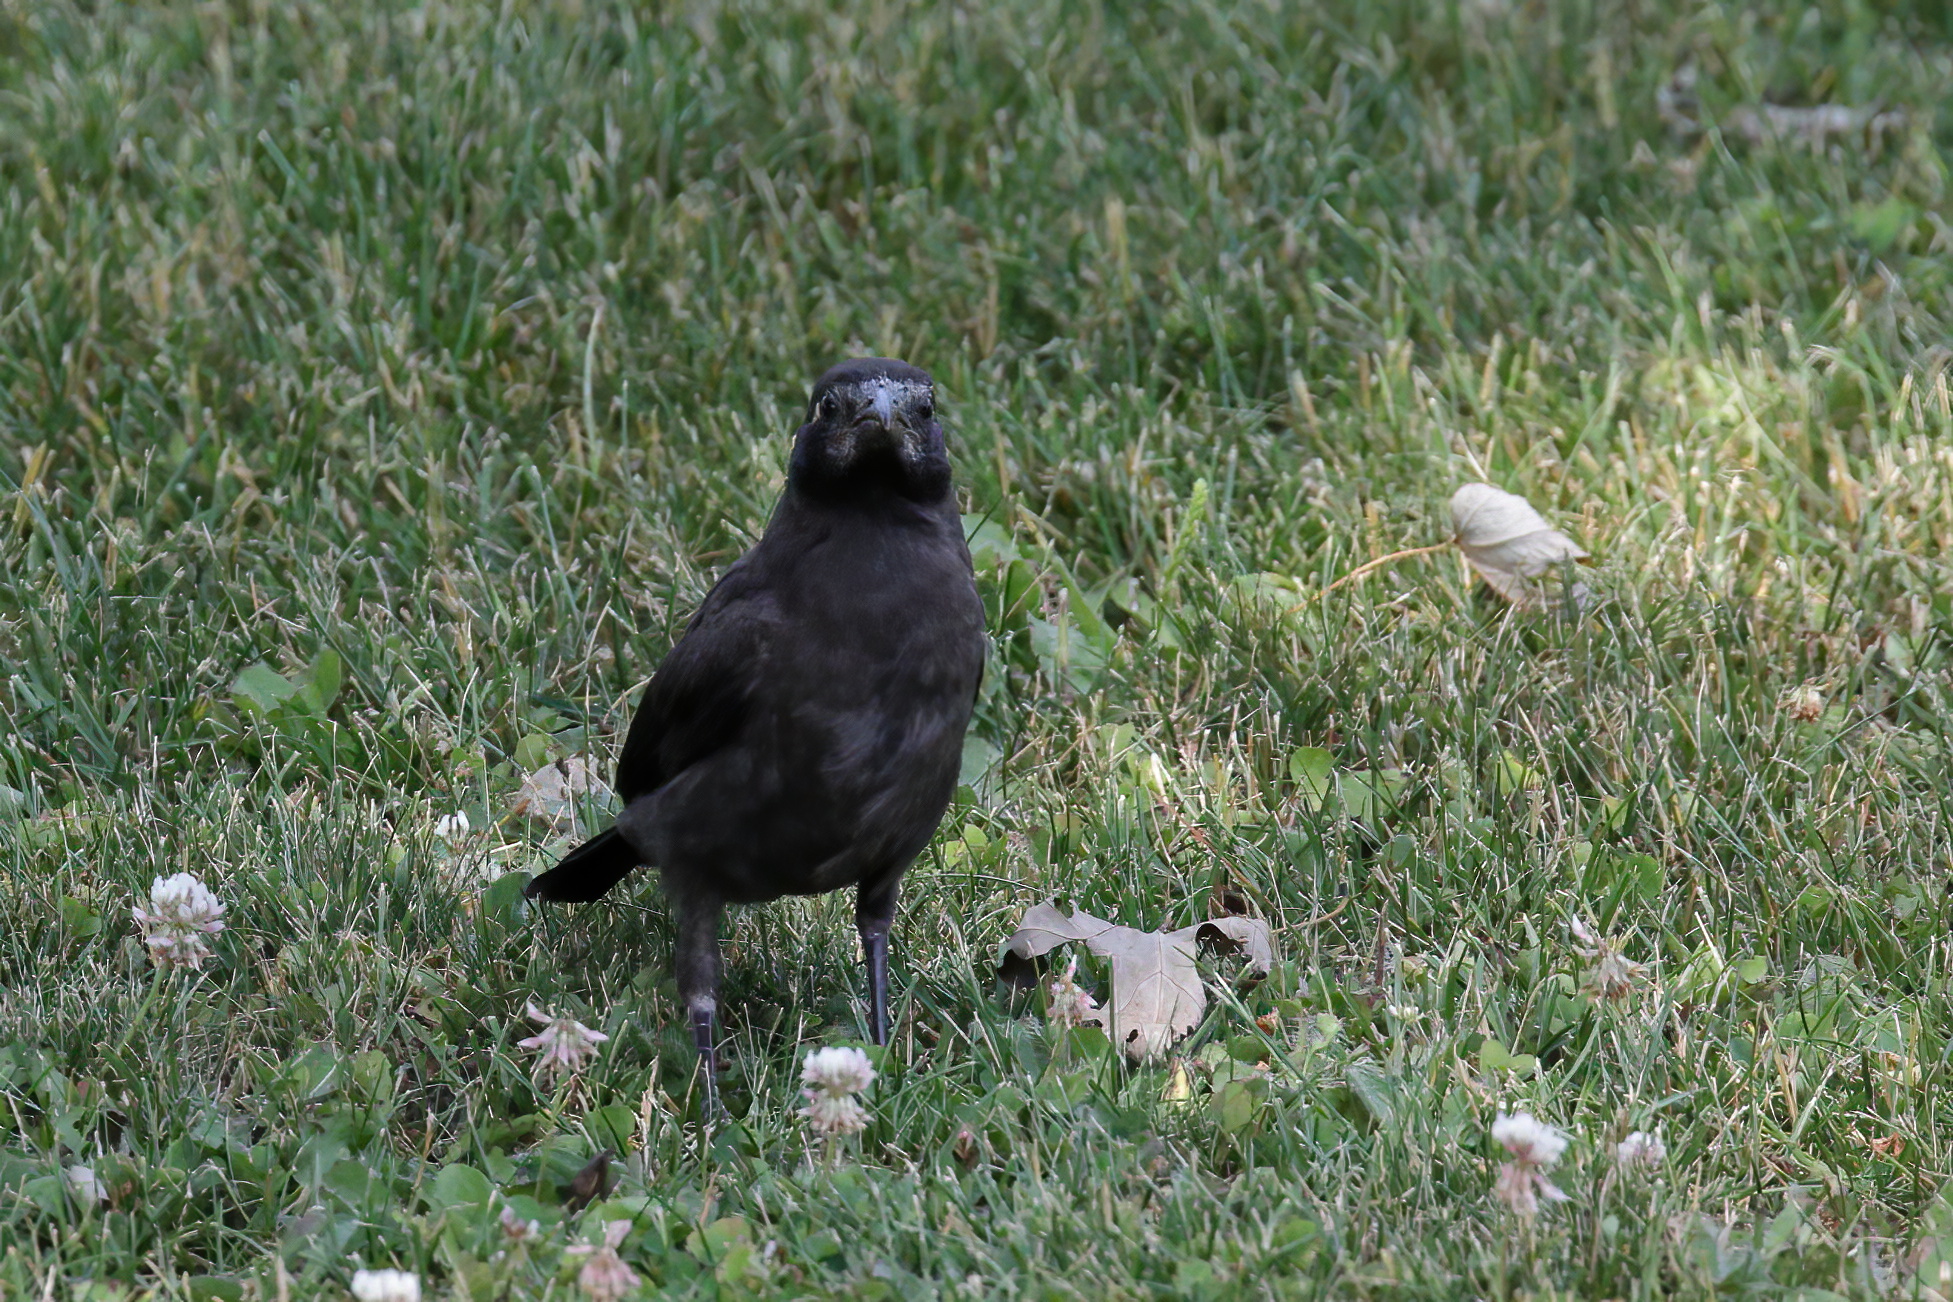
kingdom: Animalia
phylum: Chordata
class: Aves
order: Passeriformes
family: Corvidae
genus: Corvus
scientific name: Corvus brachyrhynchos
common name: American crow
